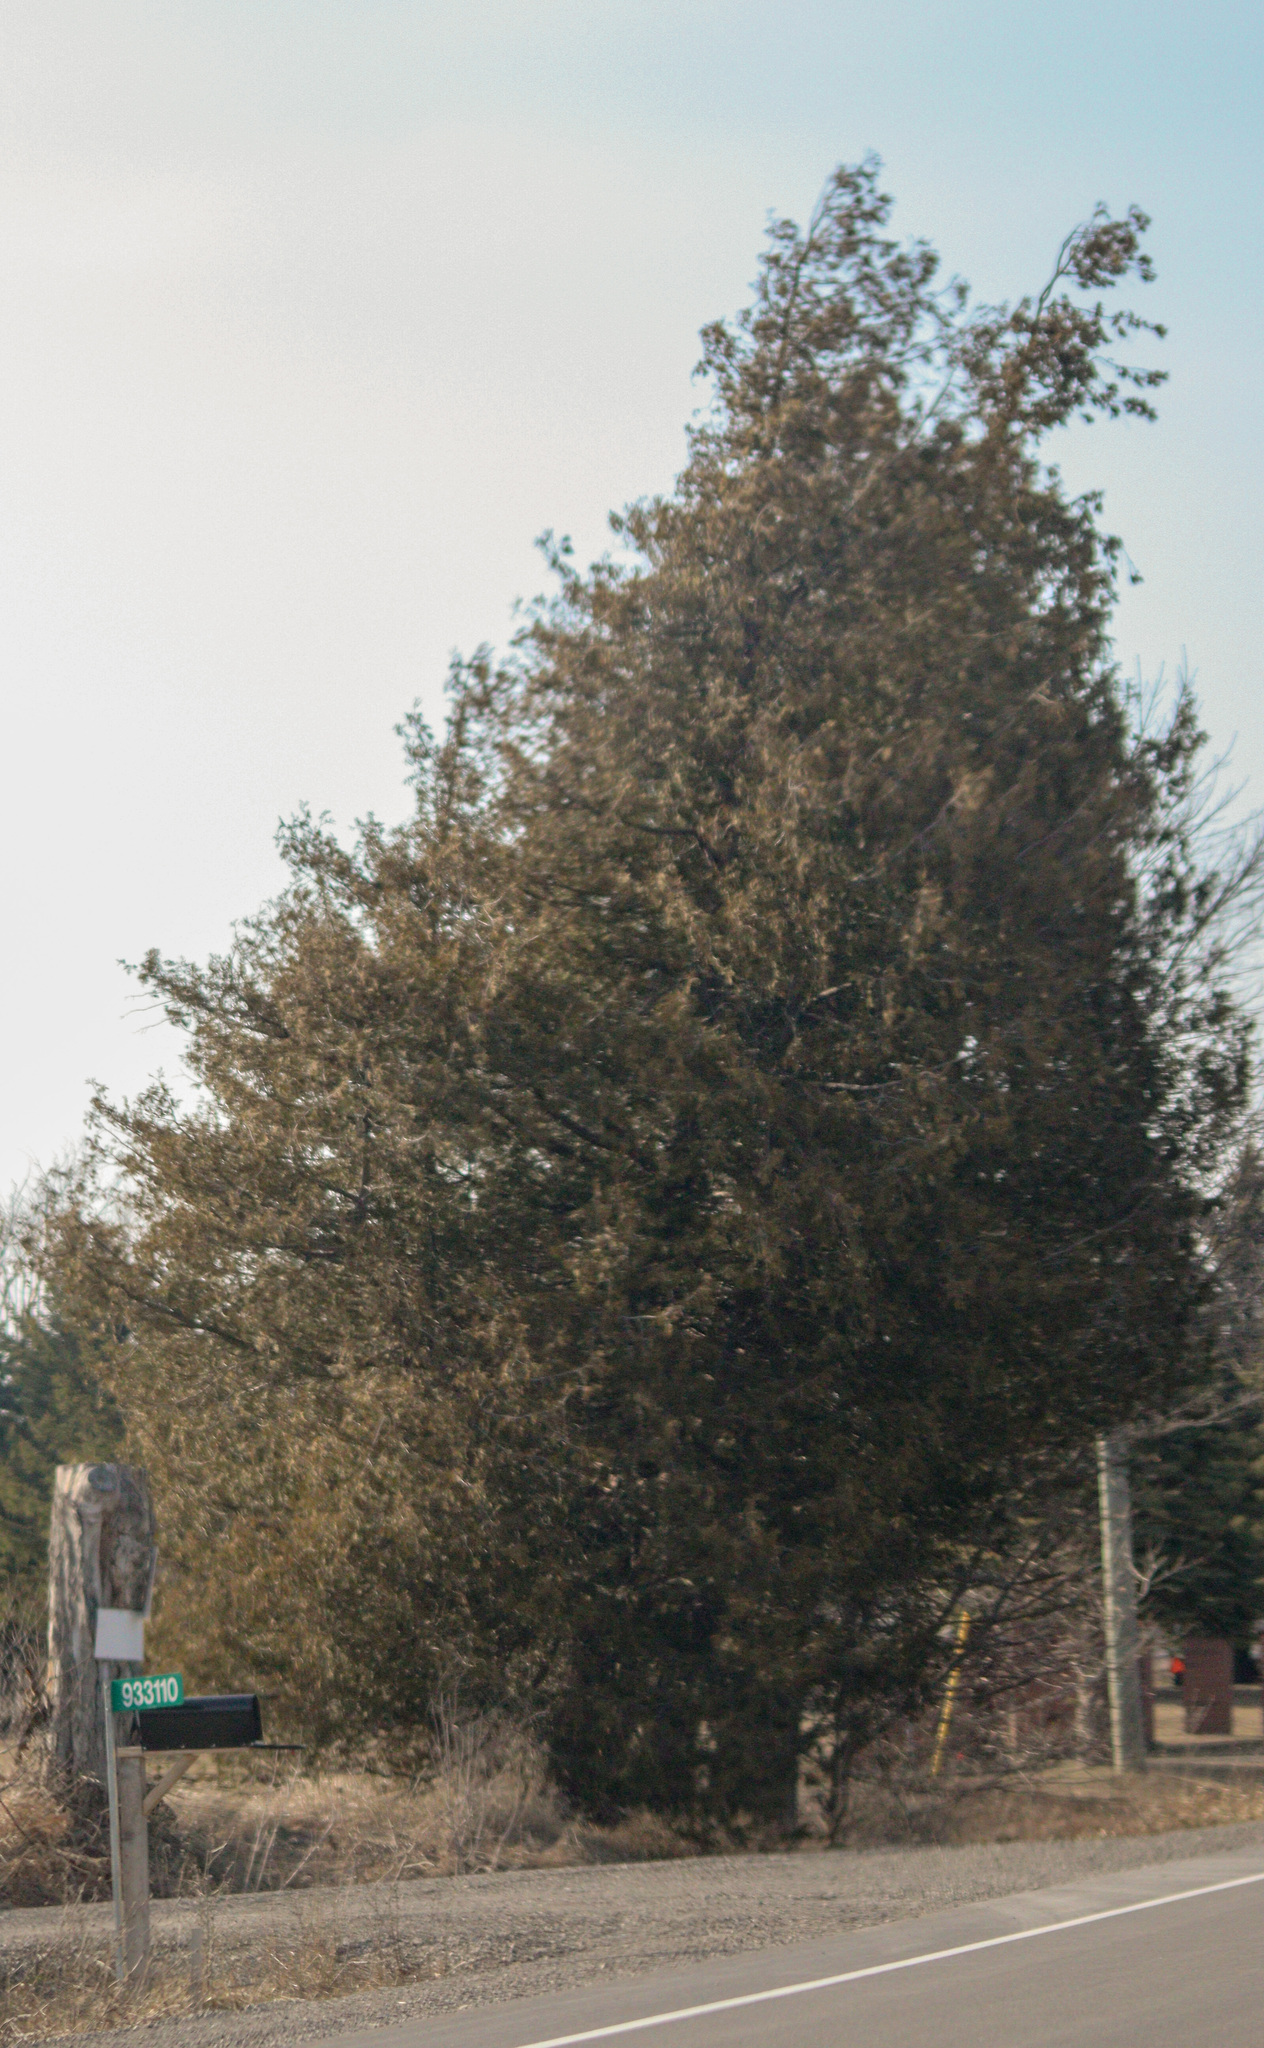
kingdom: Plantae
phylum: Tracheophyta
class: Pinopsida
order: Pinales
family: Cupressaceae
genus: Thuja
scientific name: Thuja occidentalis
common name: Northern white-cedar
